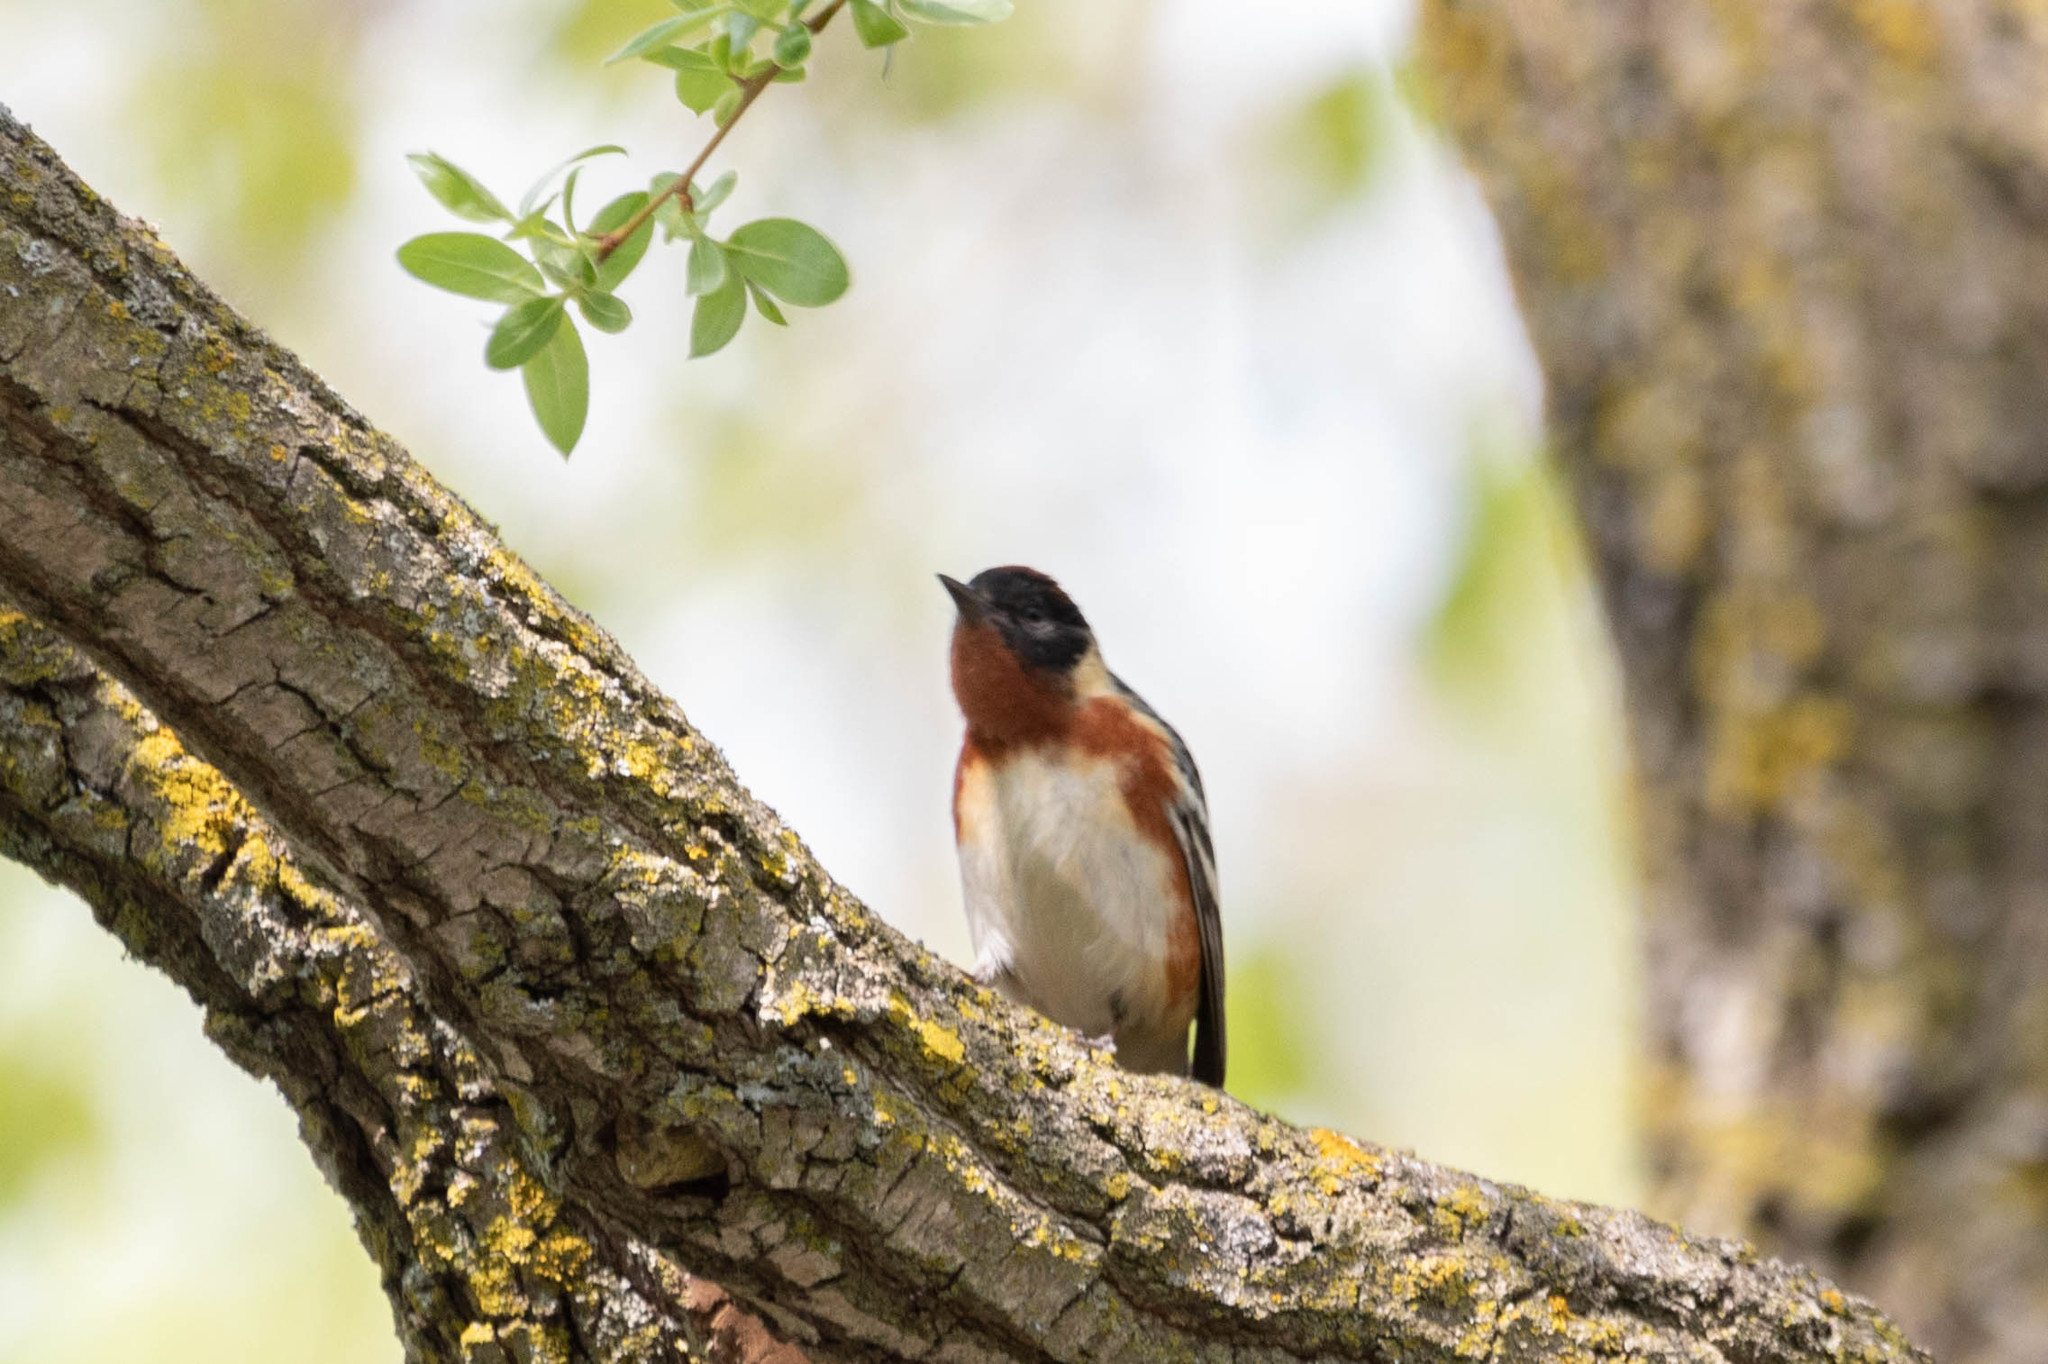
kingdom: Animalia
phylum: Chordata
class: Aves
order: Passeriformes
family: Parulidae
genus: Setophaga
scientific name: Setophaga castanea
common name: Bay-breasted warbler
